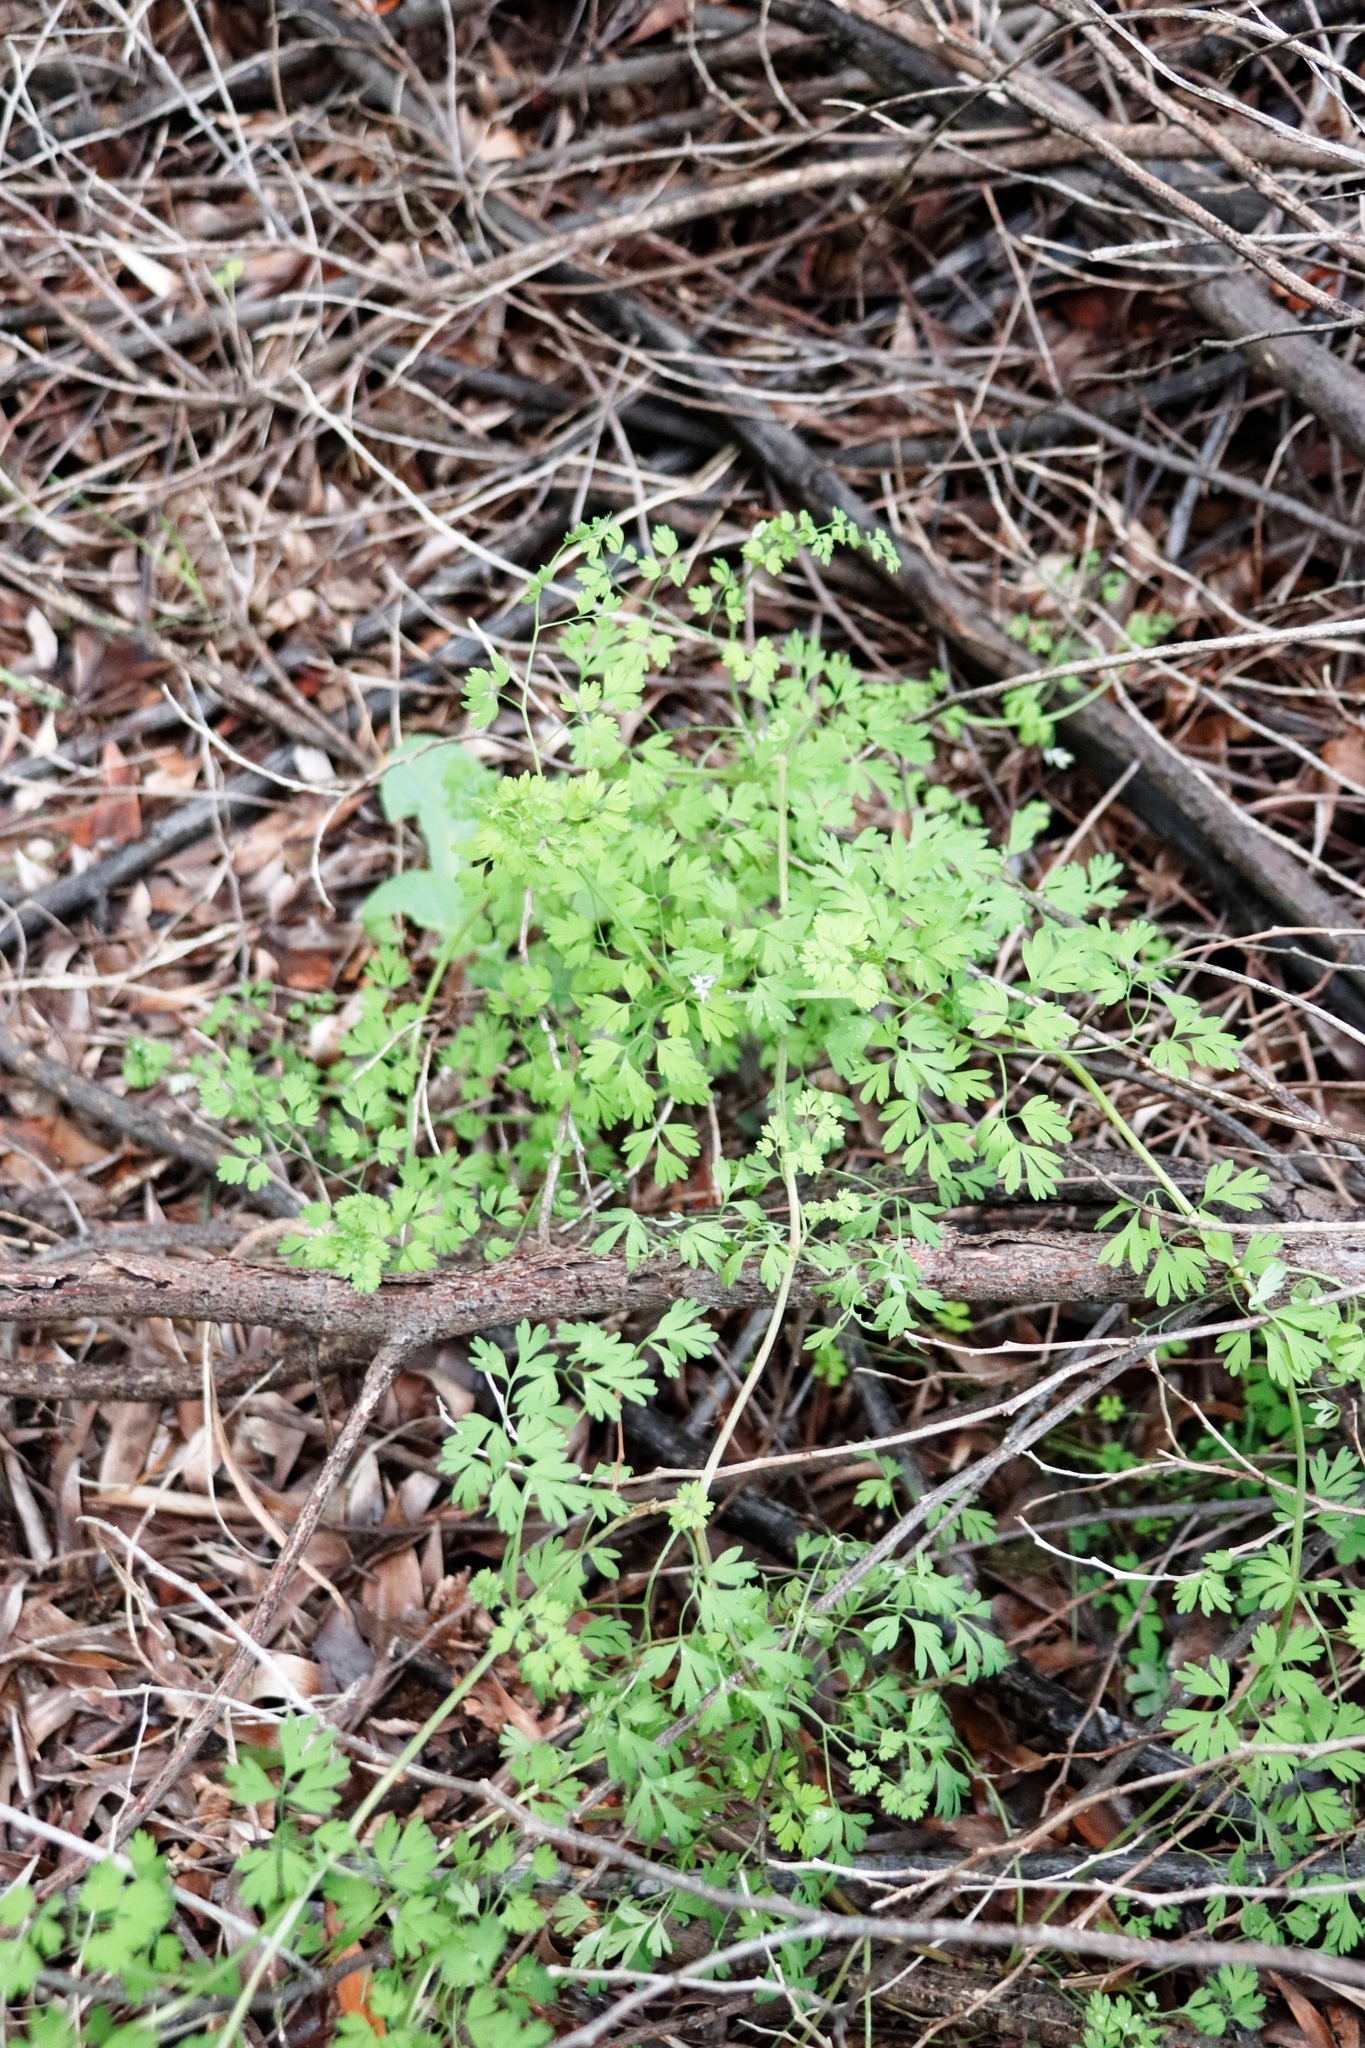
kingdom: Plantae
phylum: Tracheophyta
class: Magnoliopsida
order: Ranunculales
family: Papaveraceae
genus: Fumaria
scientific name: Fumaria muralis
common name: Common ramping-fumitory
